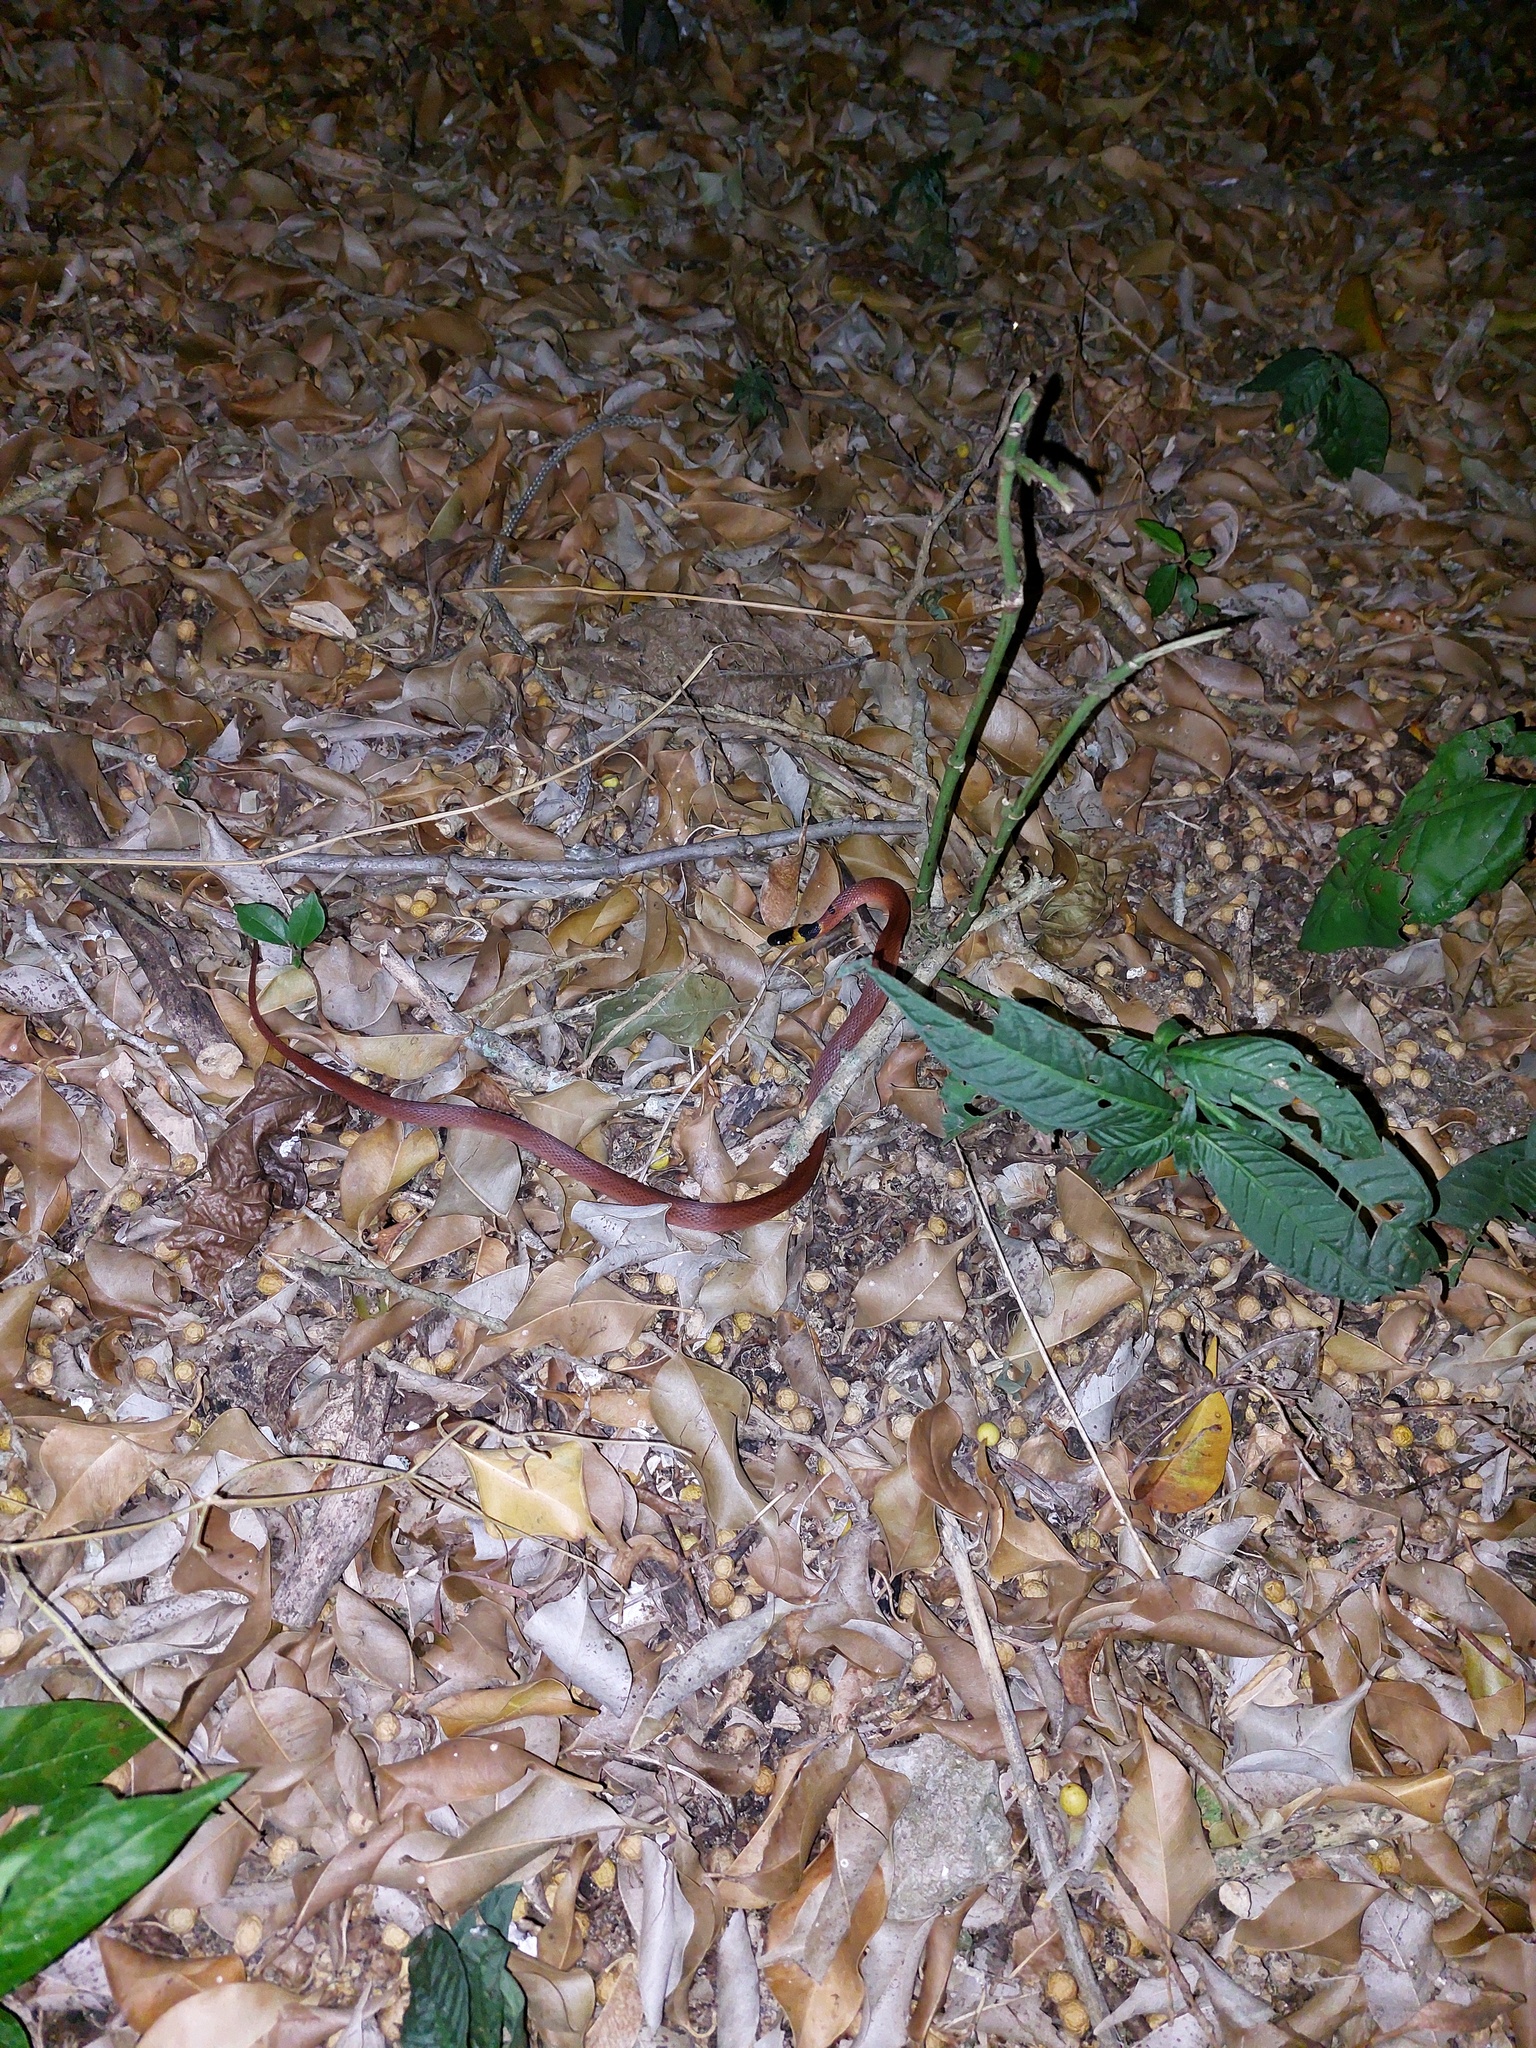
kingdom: Animalia
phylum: Chordata
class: Squamata
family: Colubridae
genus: Ninia
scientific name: Ninia sebae
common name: Redback coffee snake
